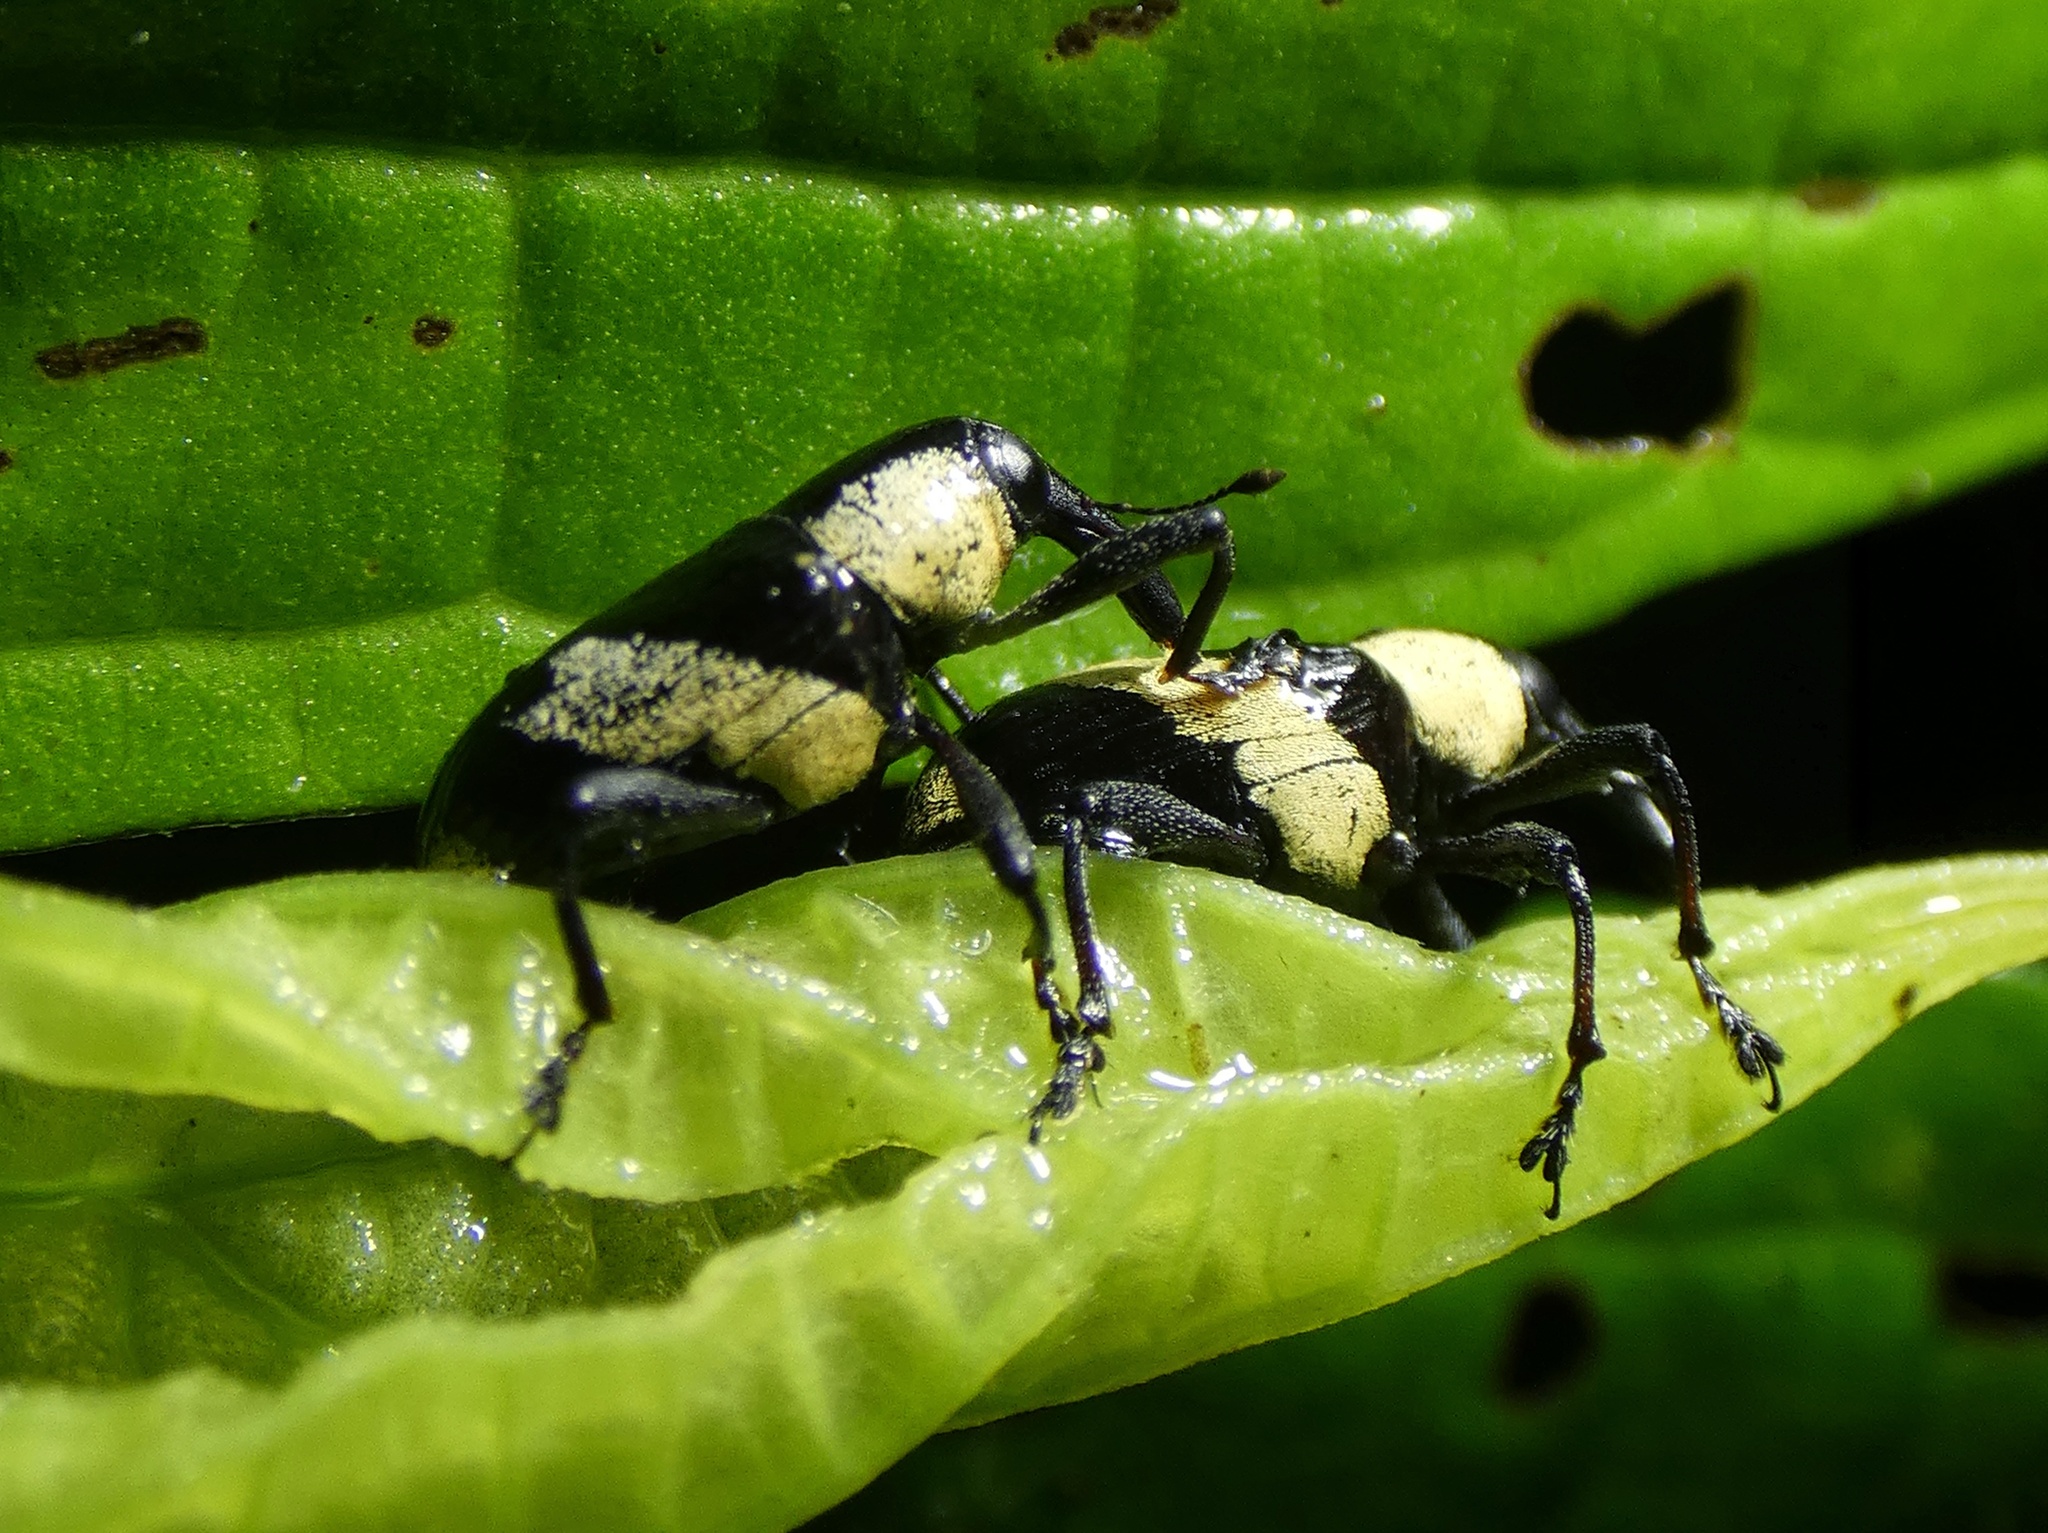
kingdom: Animalia
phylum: Arthropoda
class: Insecta
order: Coleoptera
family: Curculionidae
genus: Peridinetus
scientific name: Peridinetus cretaceus
